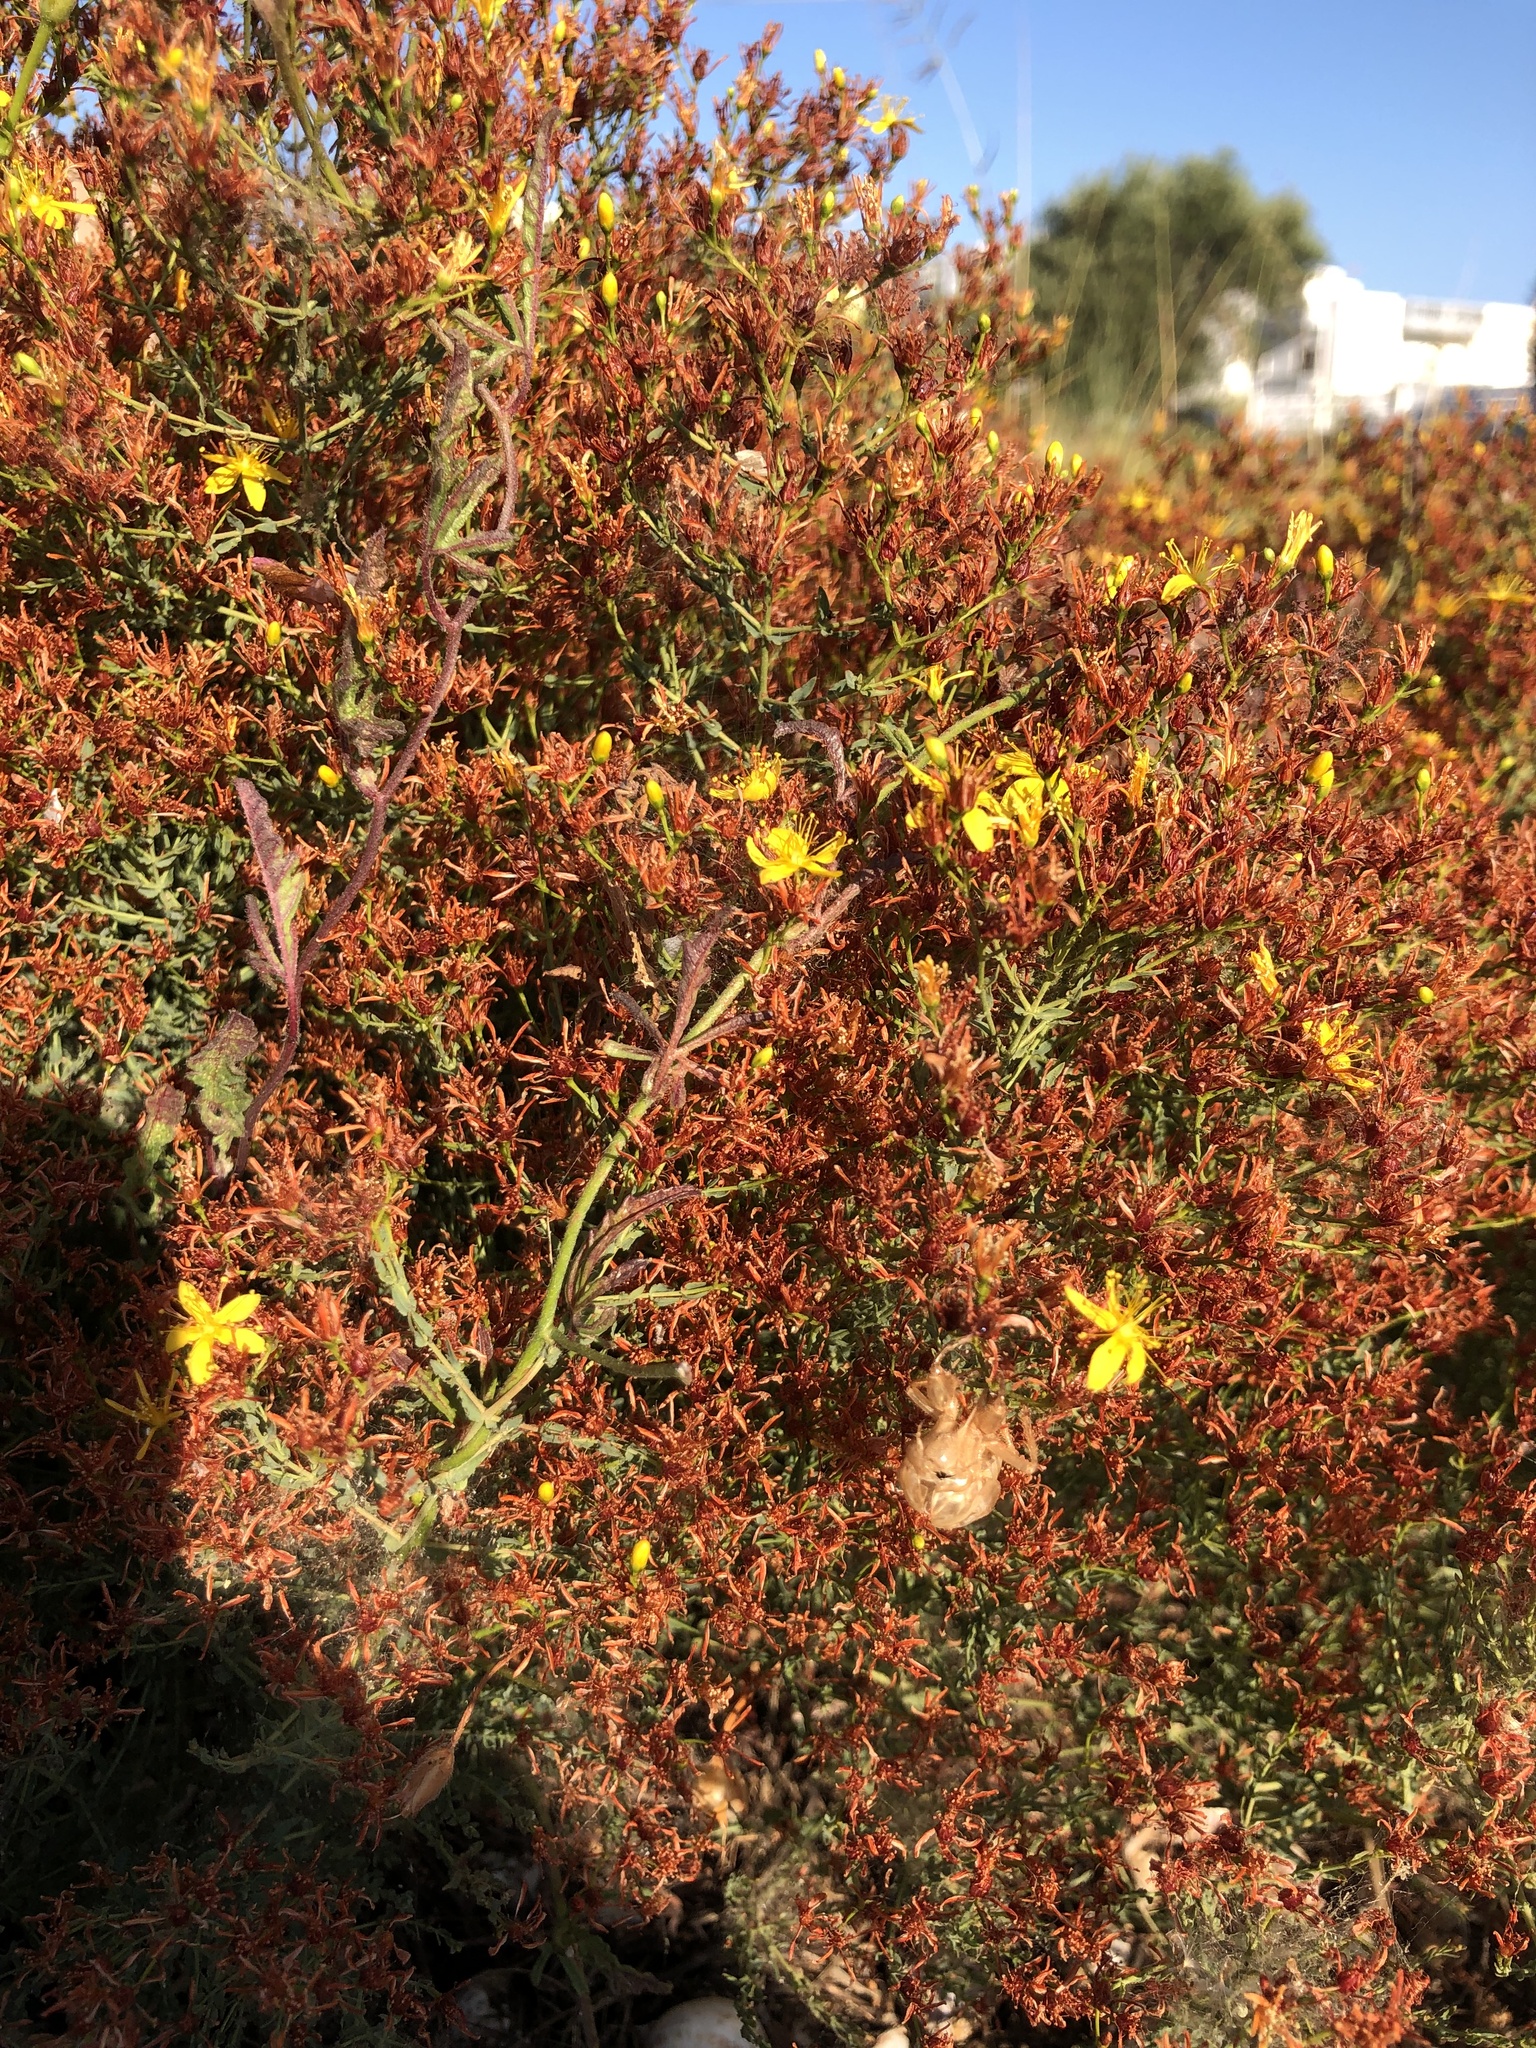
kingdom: Plantae
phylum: Tracheophyta
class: Magnoliopsida
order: Malpighiales
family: Hypericaceae
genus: Hypericum
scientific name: Hypericum triquetrifolium
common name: Tangled hypericum
